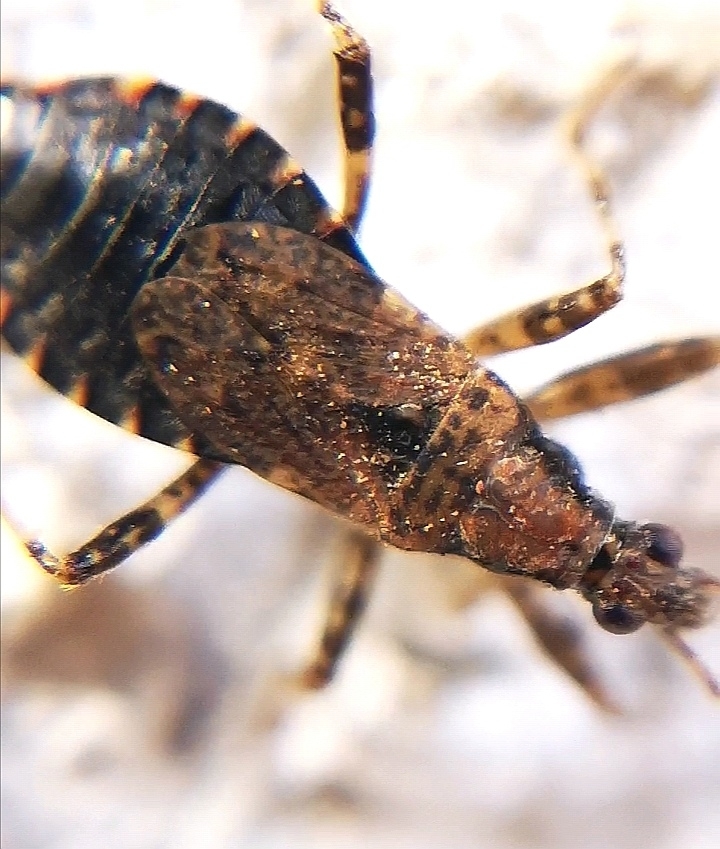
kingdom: Animalia
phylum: Arthropoda
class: Insecta
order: Hemiptera
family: Nabidae
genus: Himacerus
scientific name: Himacerus mirmicoides
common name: Ant damsel bug
